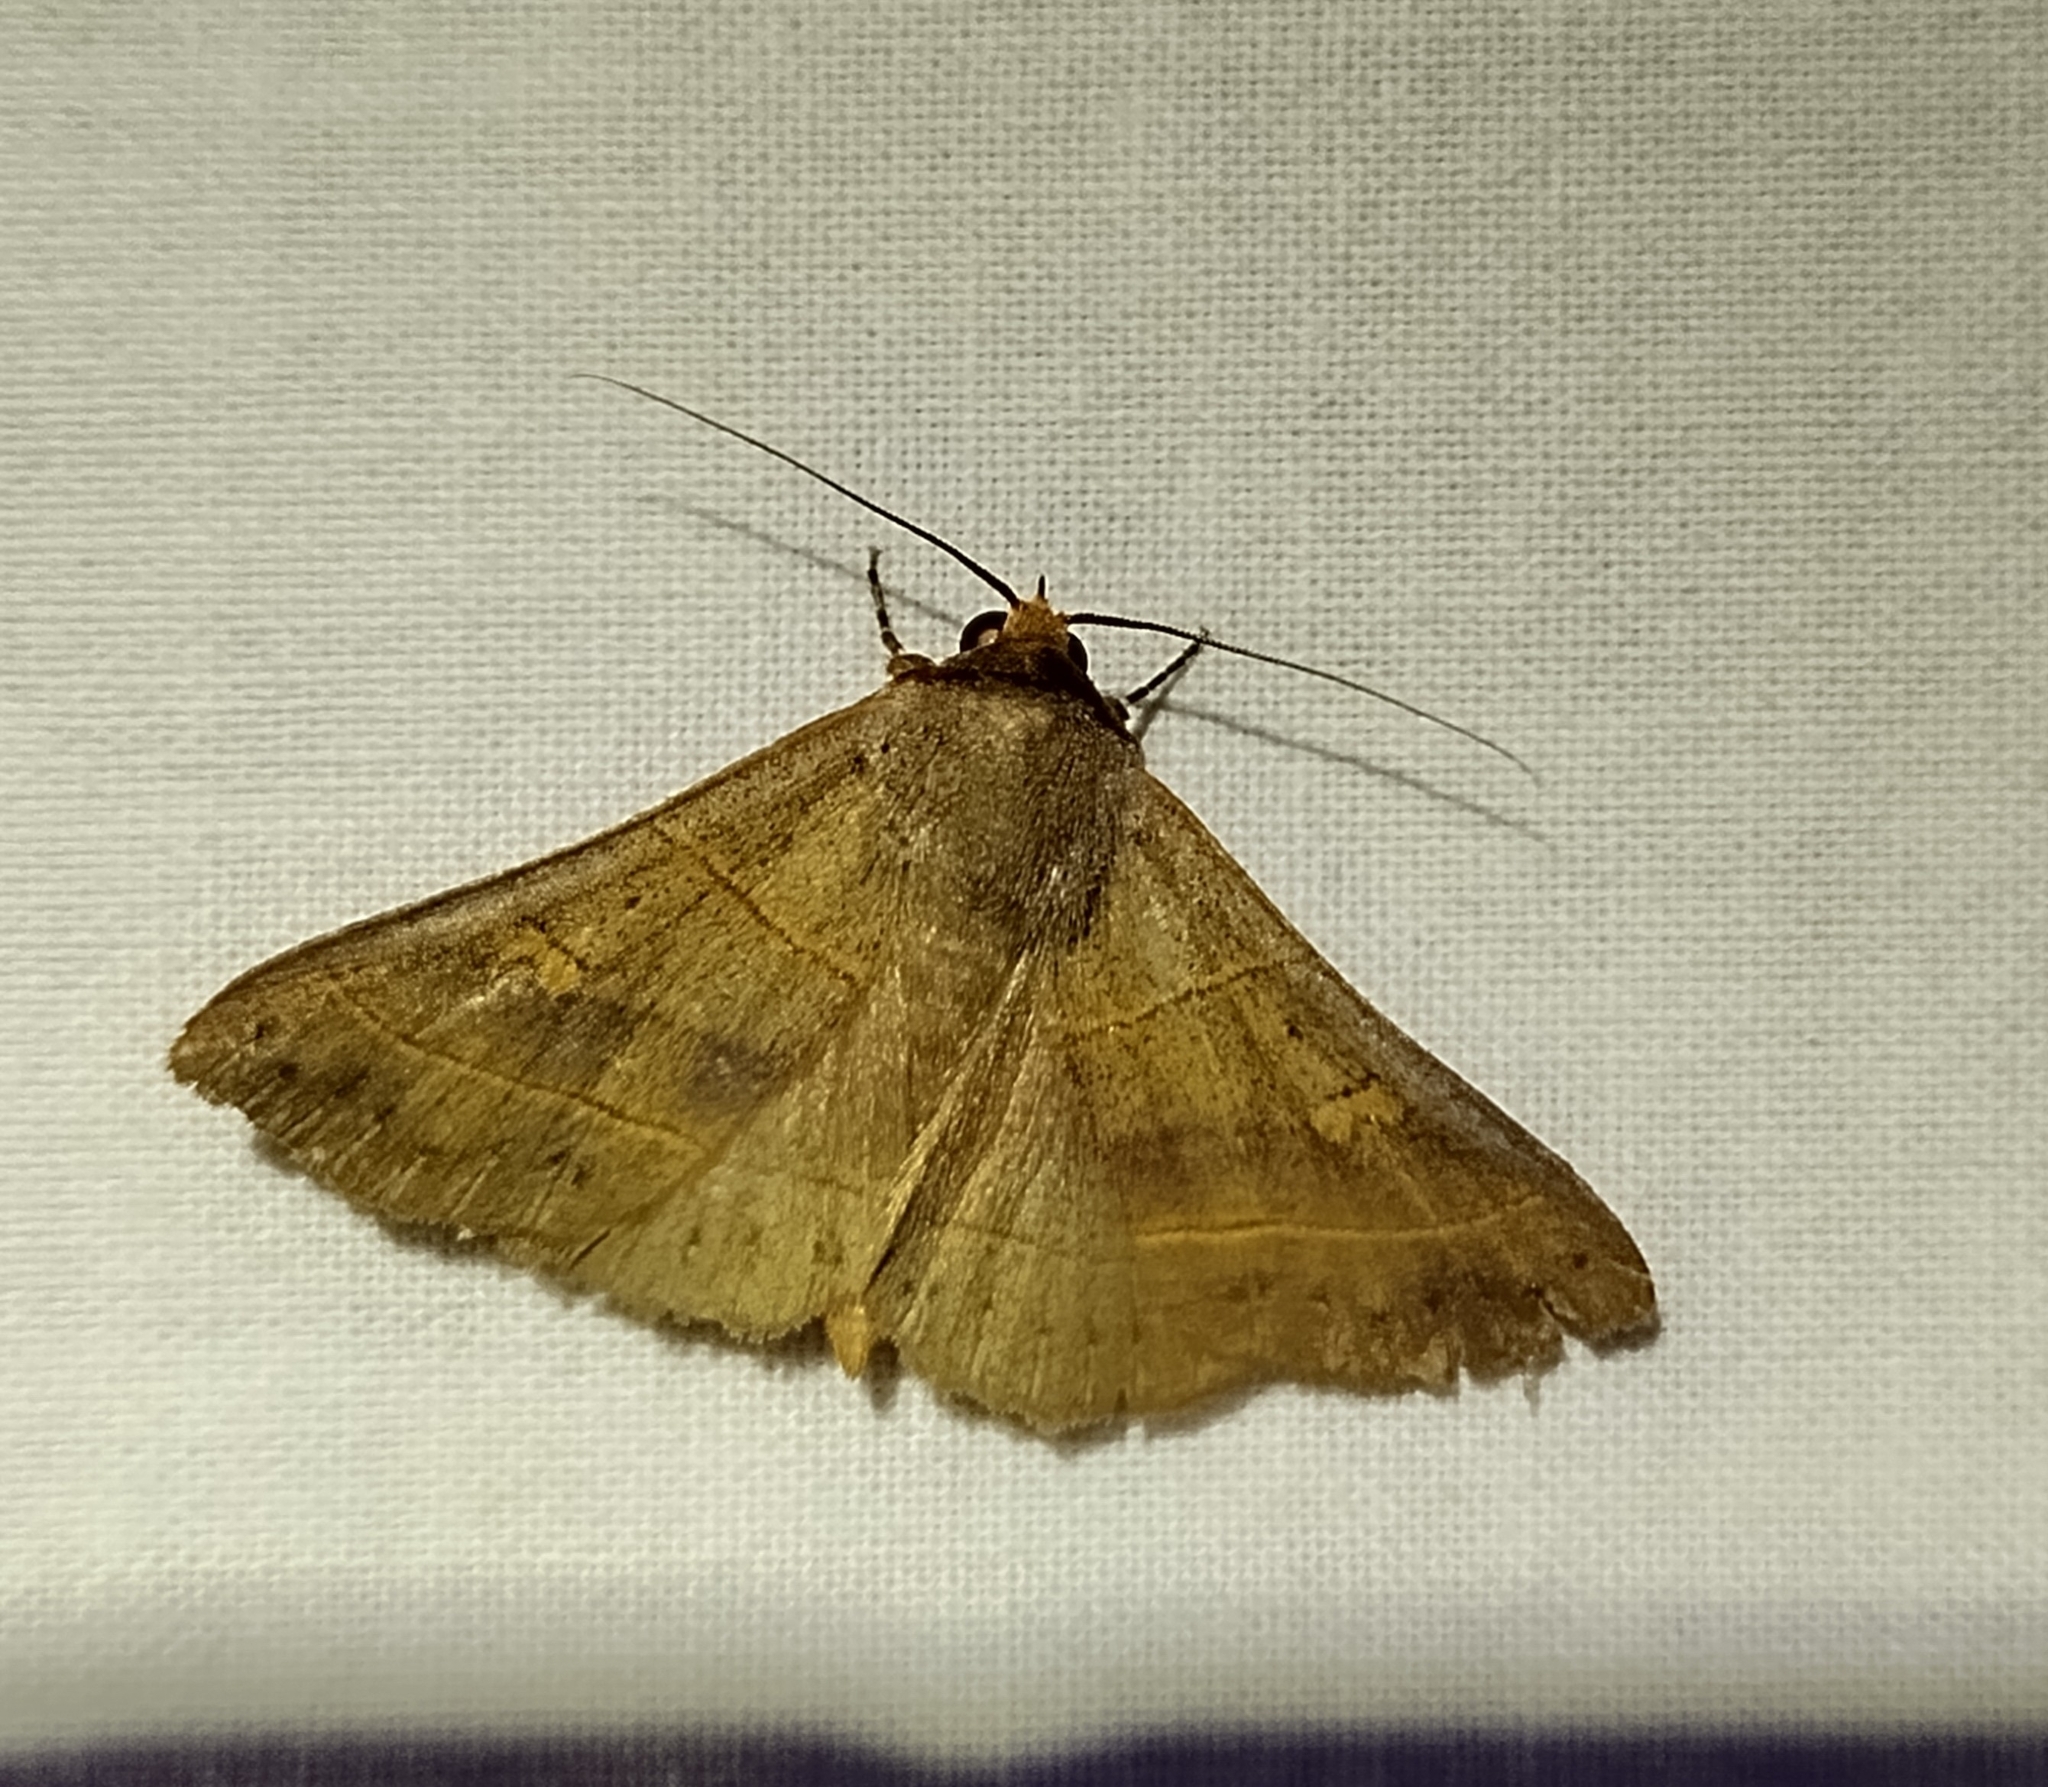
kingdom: Animalia
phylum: Arthropoda
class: Insecta
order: Lepidoptera
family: Erebidae
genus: Panopoda
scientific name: Panopoda rufimargo
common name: Red-lined panopoda moth
